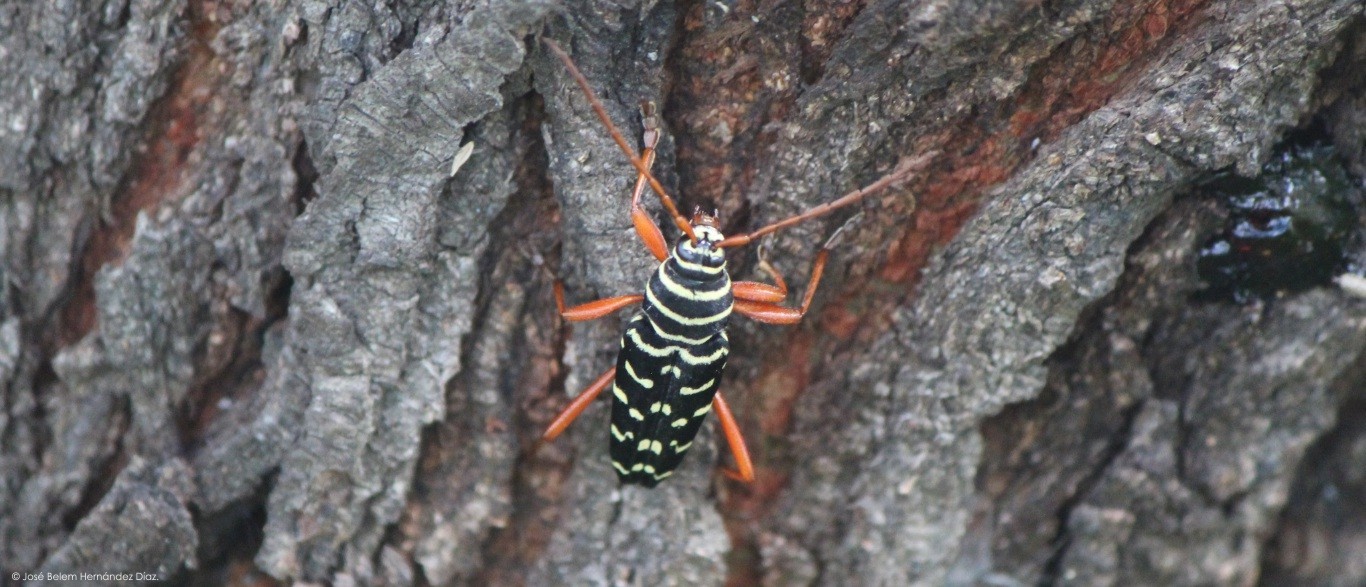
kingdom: Animalia
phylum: Arthropoda
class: Insecta
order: Coleoptera
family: Cerambycidae
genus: Placosternus
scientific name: Placosternus erythropus
